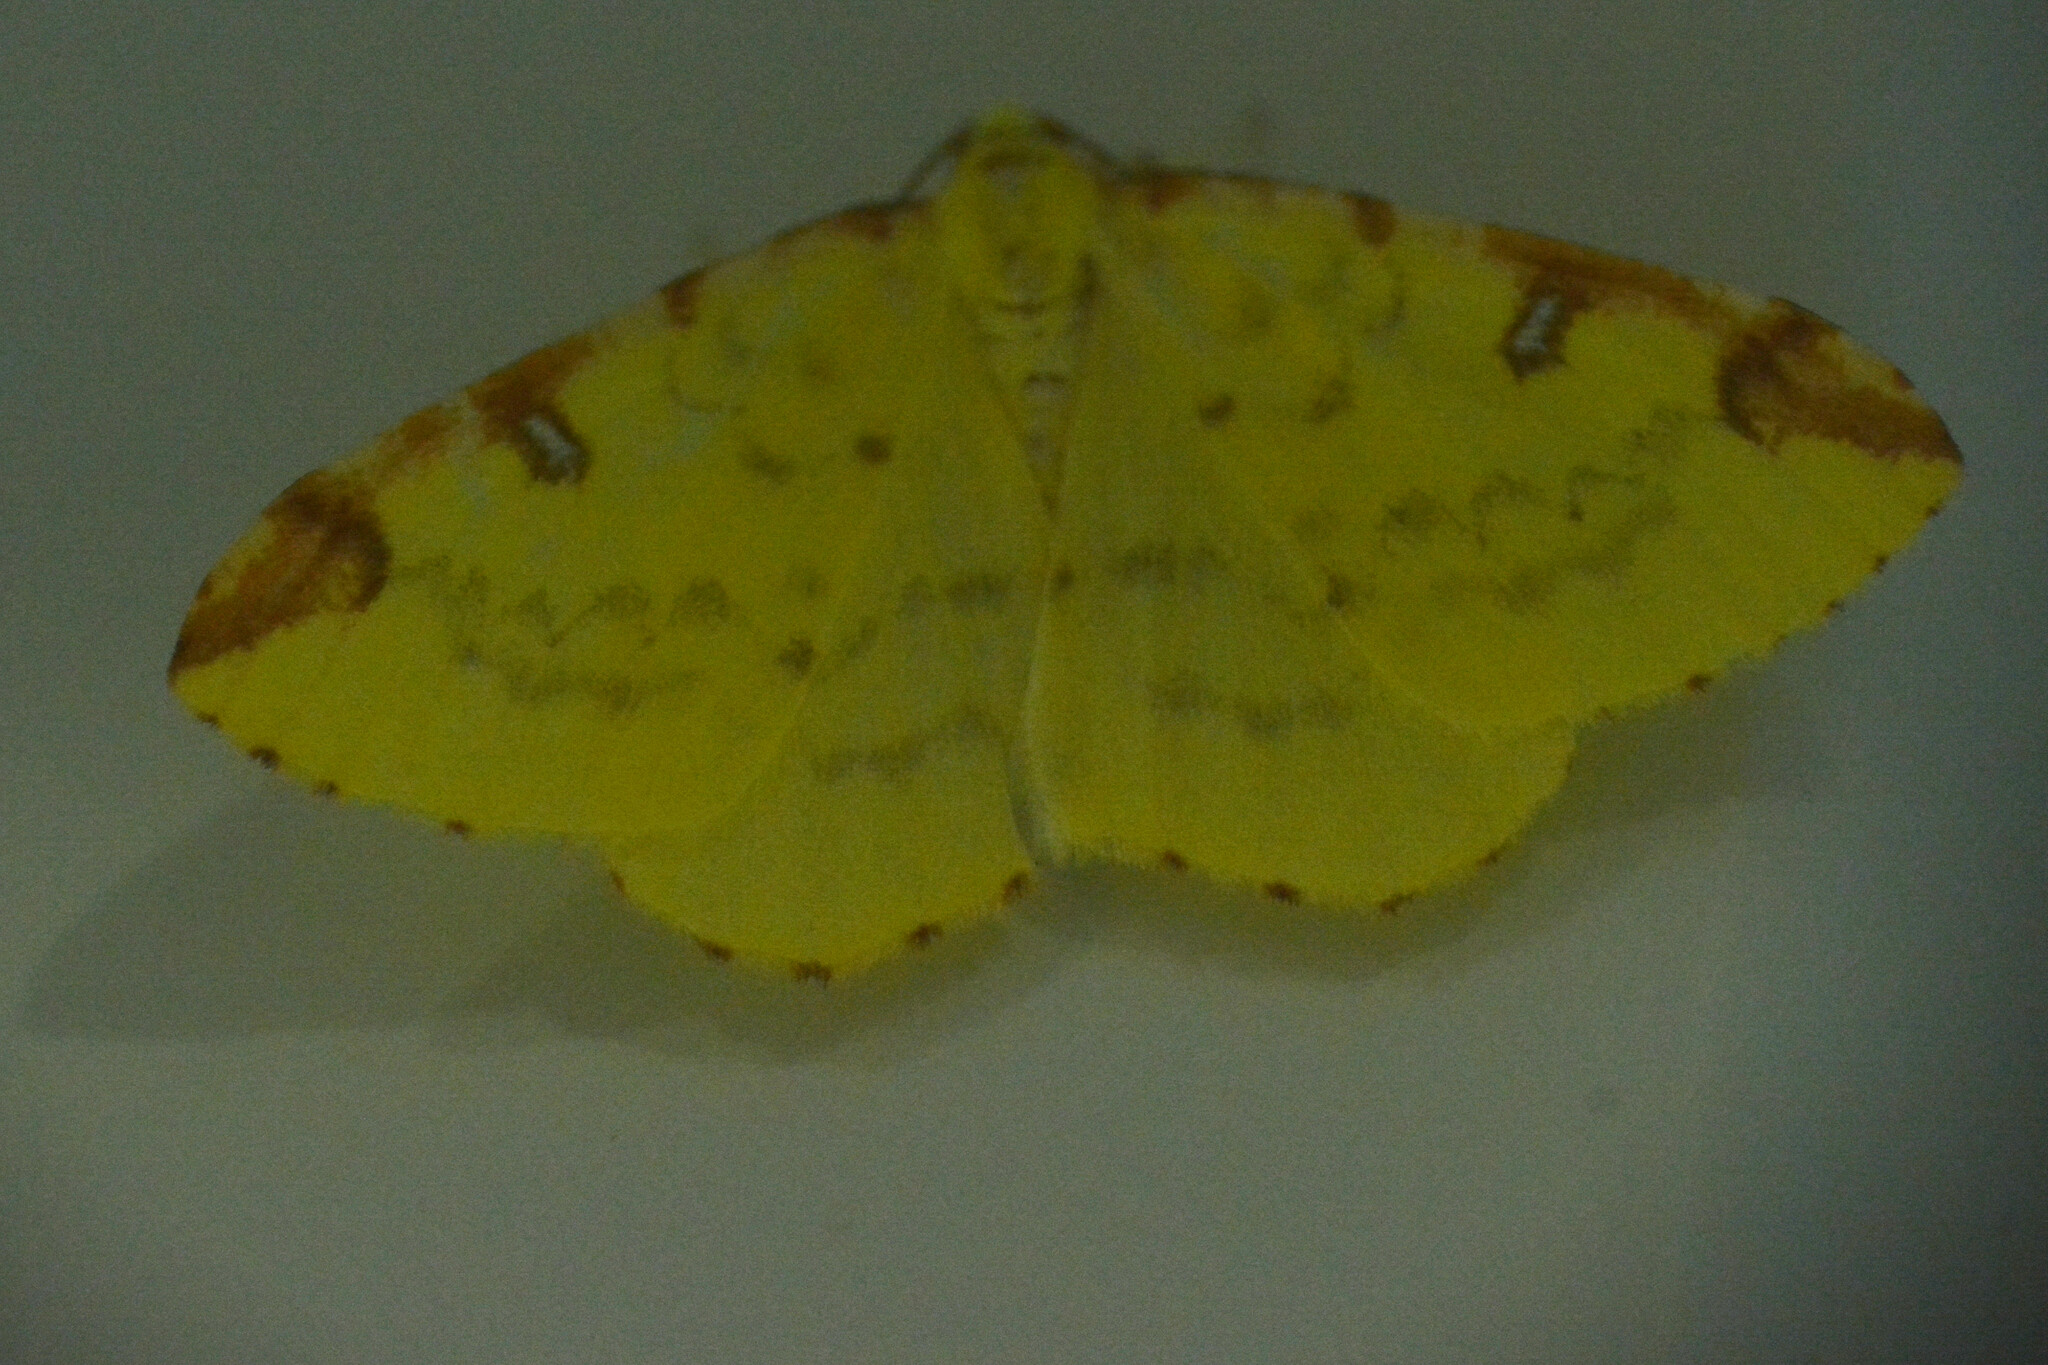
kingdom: Animalia
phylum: Arthropoda
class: Insecta
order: Lepidoptera
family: Geometridae
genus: Opisthograptis
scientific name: Opisthograptis luteolata
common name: Brimstone moth
